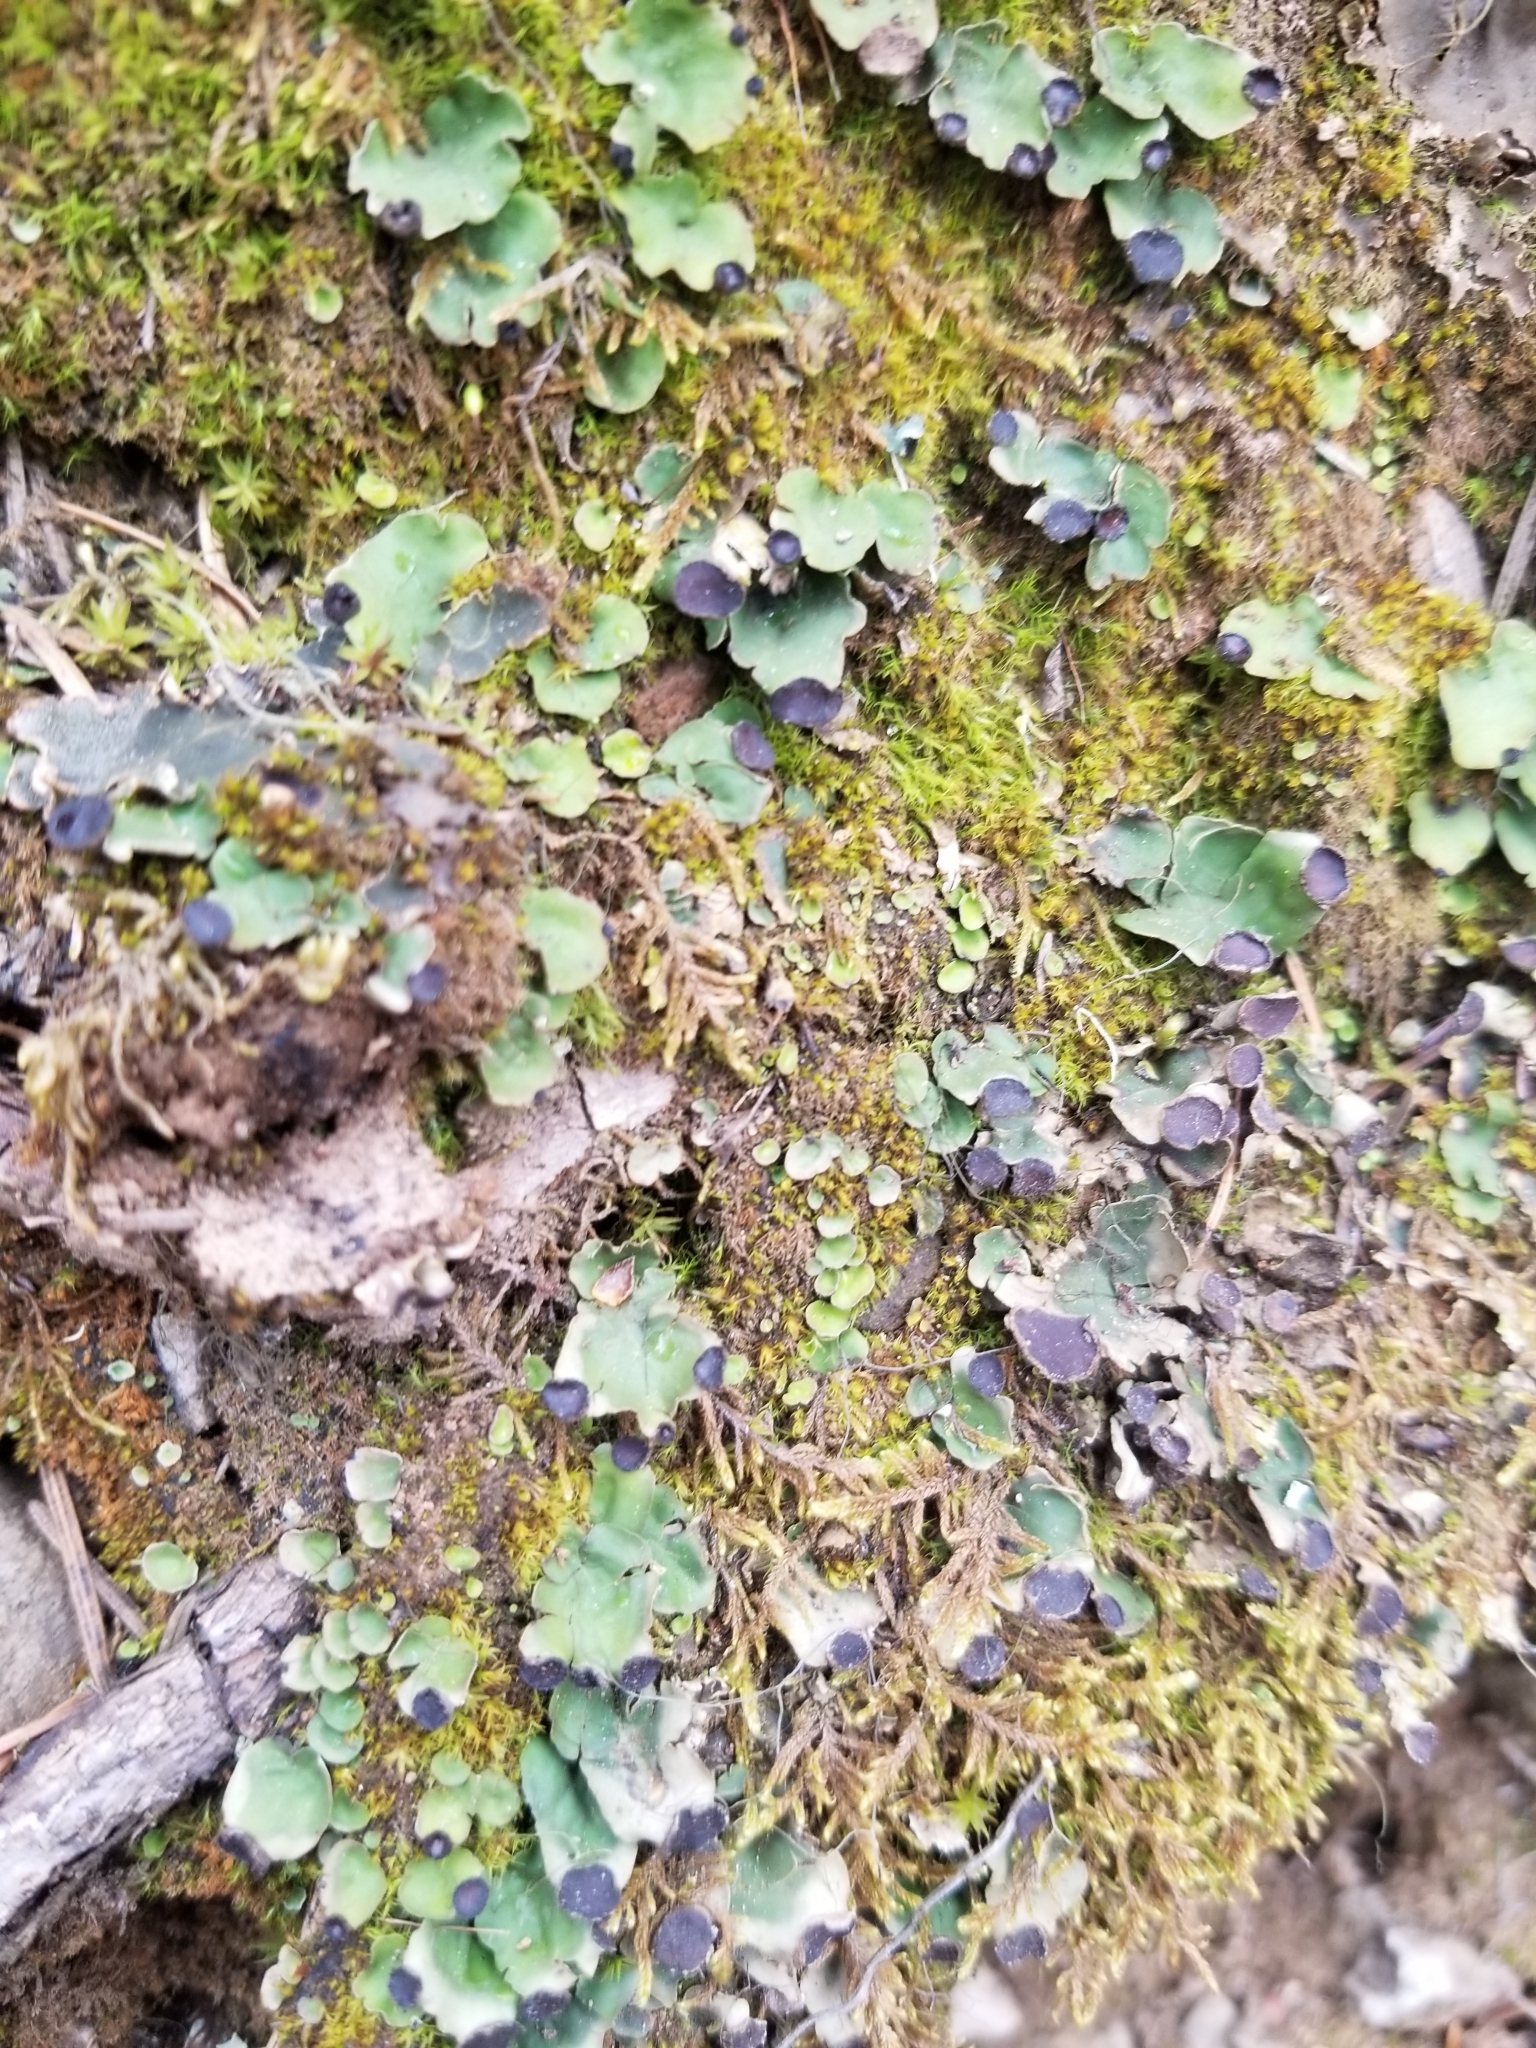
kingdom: Fungi
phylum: Ascomycota
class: Lecanoromycetes
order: Peltigerales
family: Peltigeraceae
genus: Peltigera
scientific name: Peltigera venosa
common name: Pixie gowns lichen
